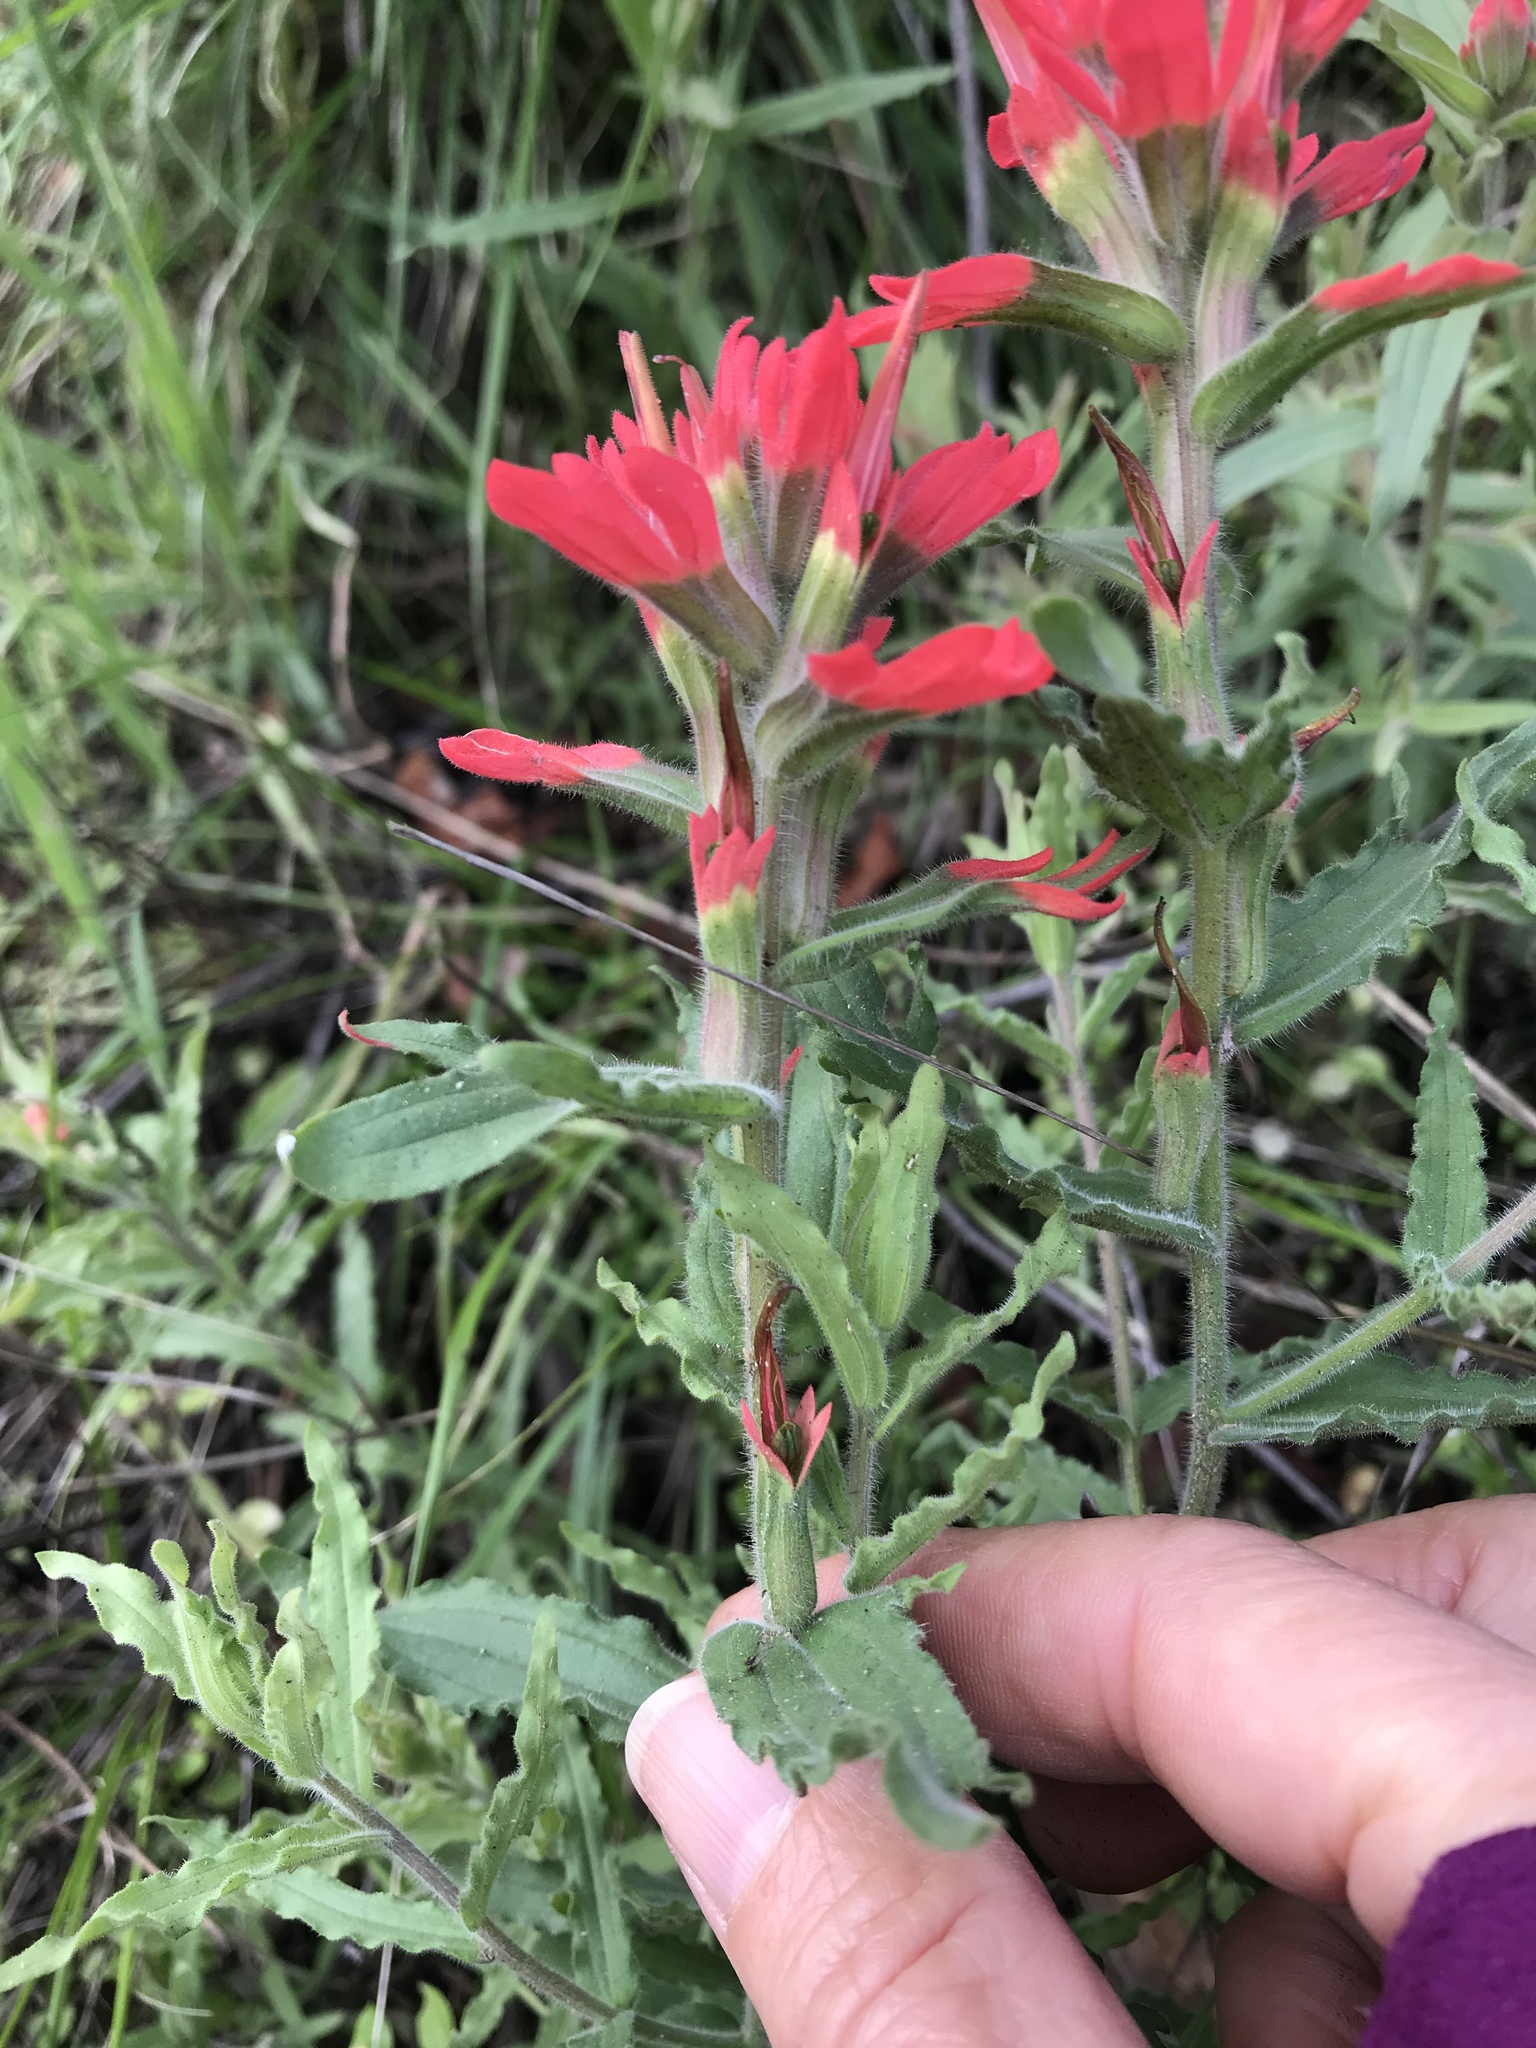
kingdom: Plantae
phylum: Tracheophyta
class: Magnoliopsida
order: Lamiales
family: Orobanchaceae
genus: Castilleja
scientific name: Castilleja martini
